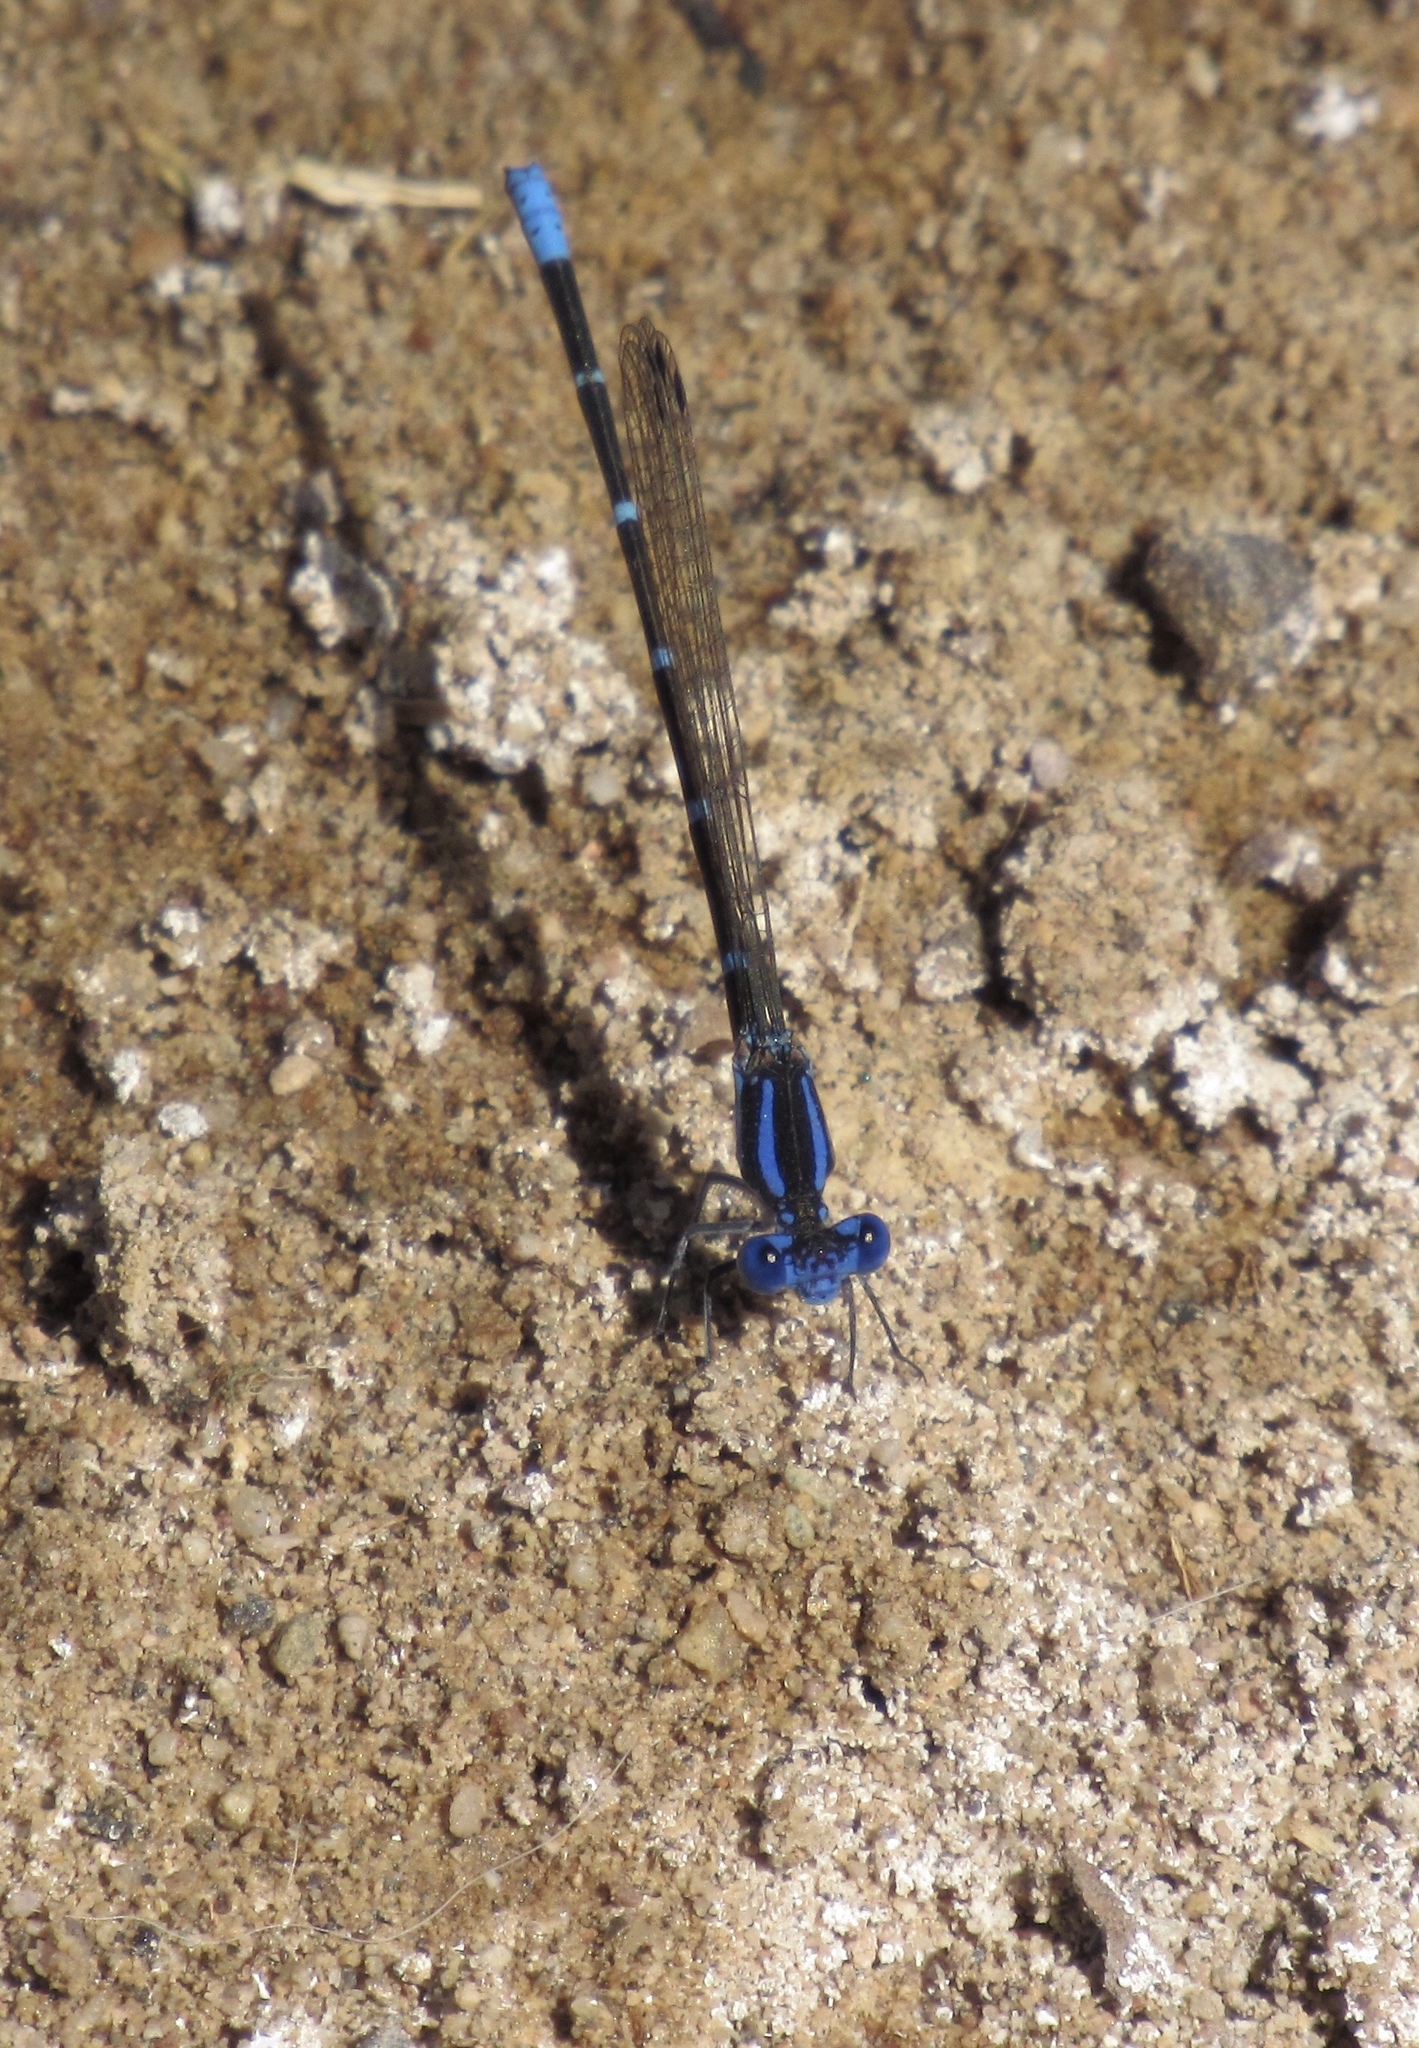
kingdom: Animalia
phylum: Arthropoda
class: Insecta
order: Odonata
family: Coenagrionidae
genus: Argia
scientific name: Argia sedula
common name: Blue-ringed dancer
